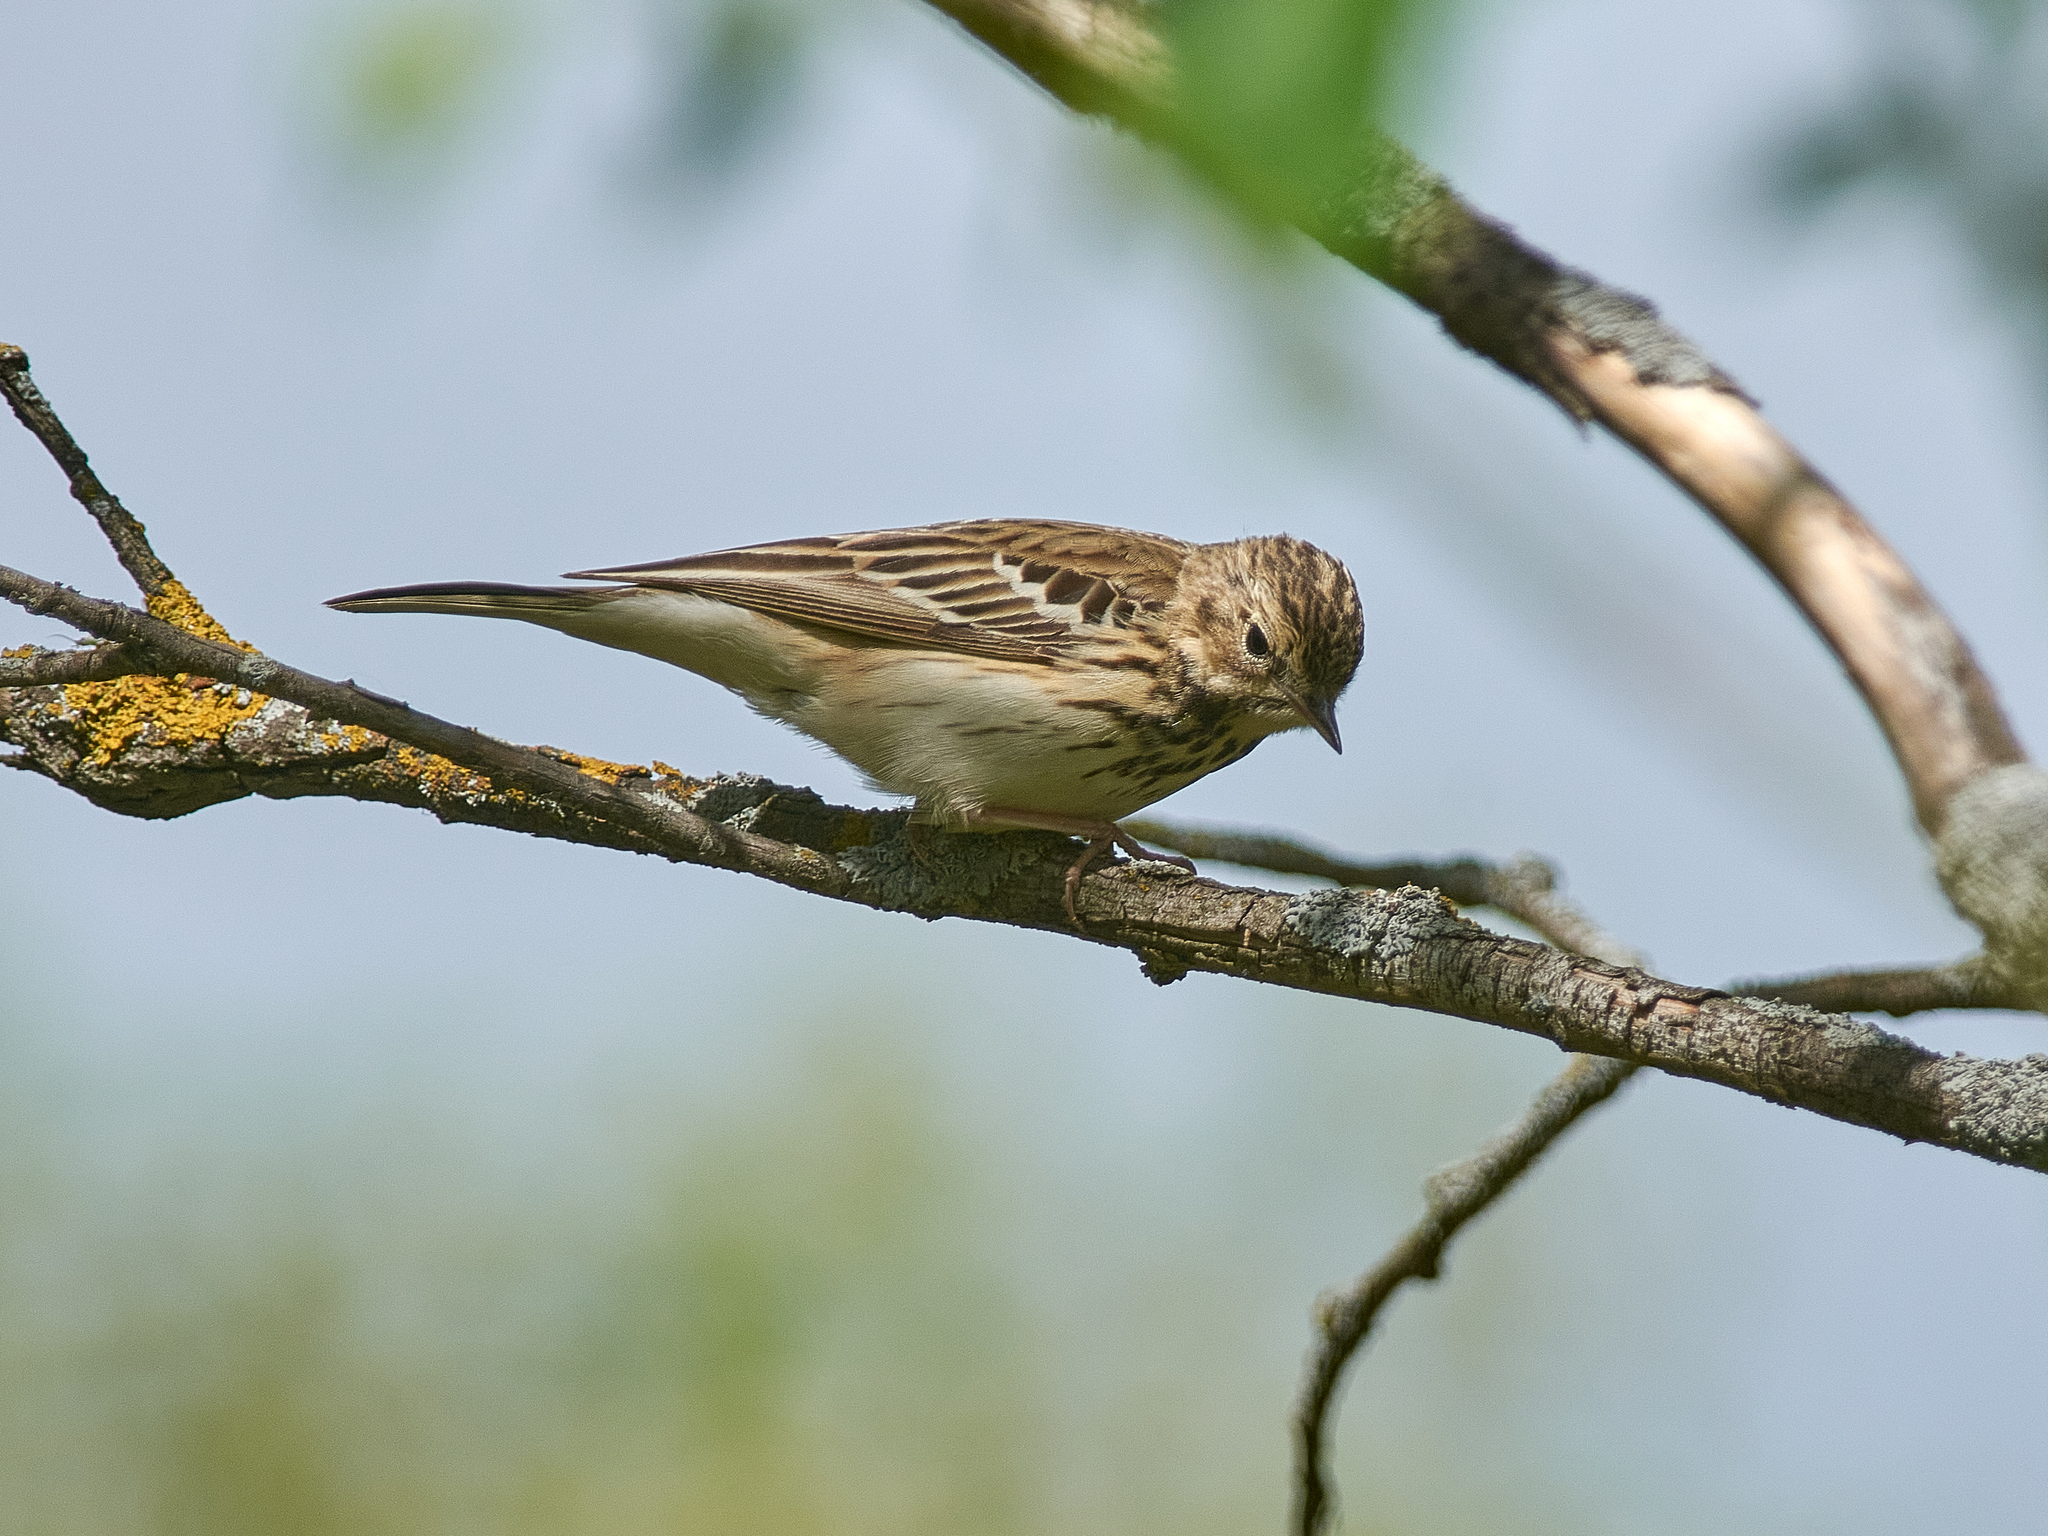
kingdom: Animalia
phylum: Chordata
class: Aves
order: Passeriformes
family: Motacillidae
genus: Anthus
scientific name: Anthus trivialis
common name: Tree pipit
